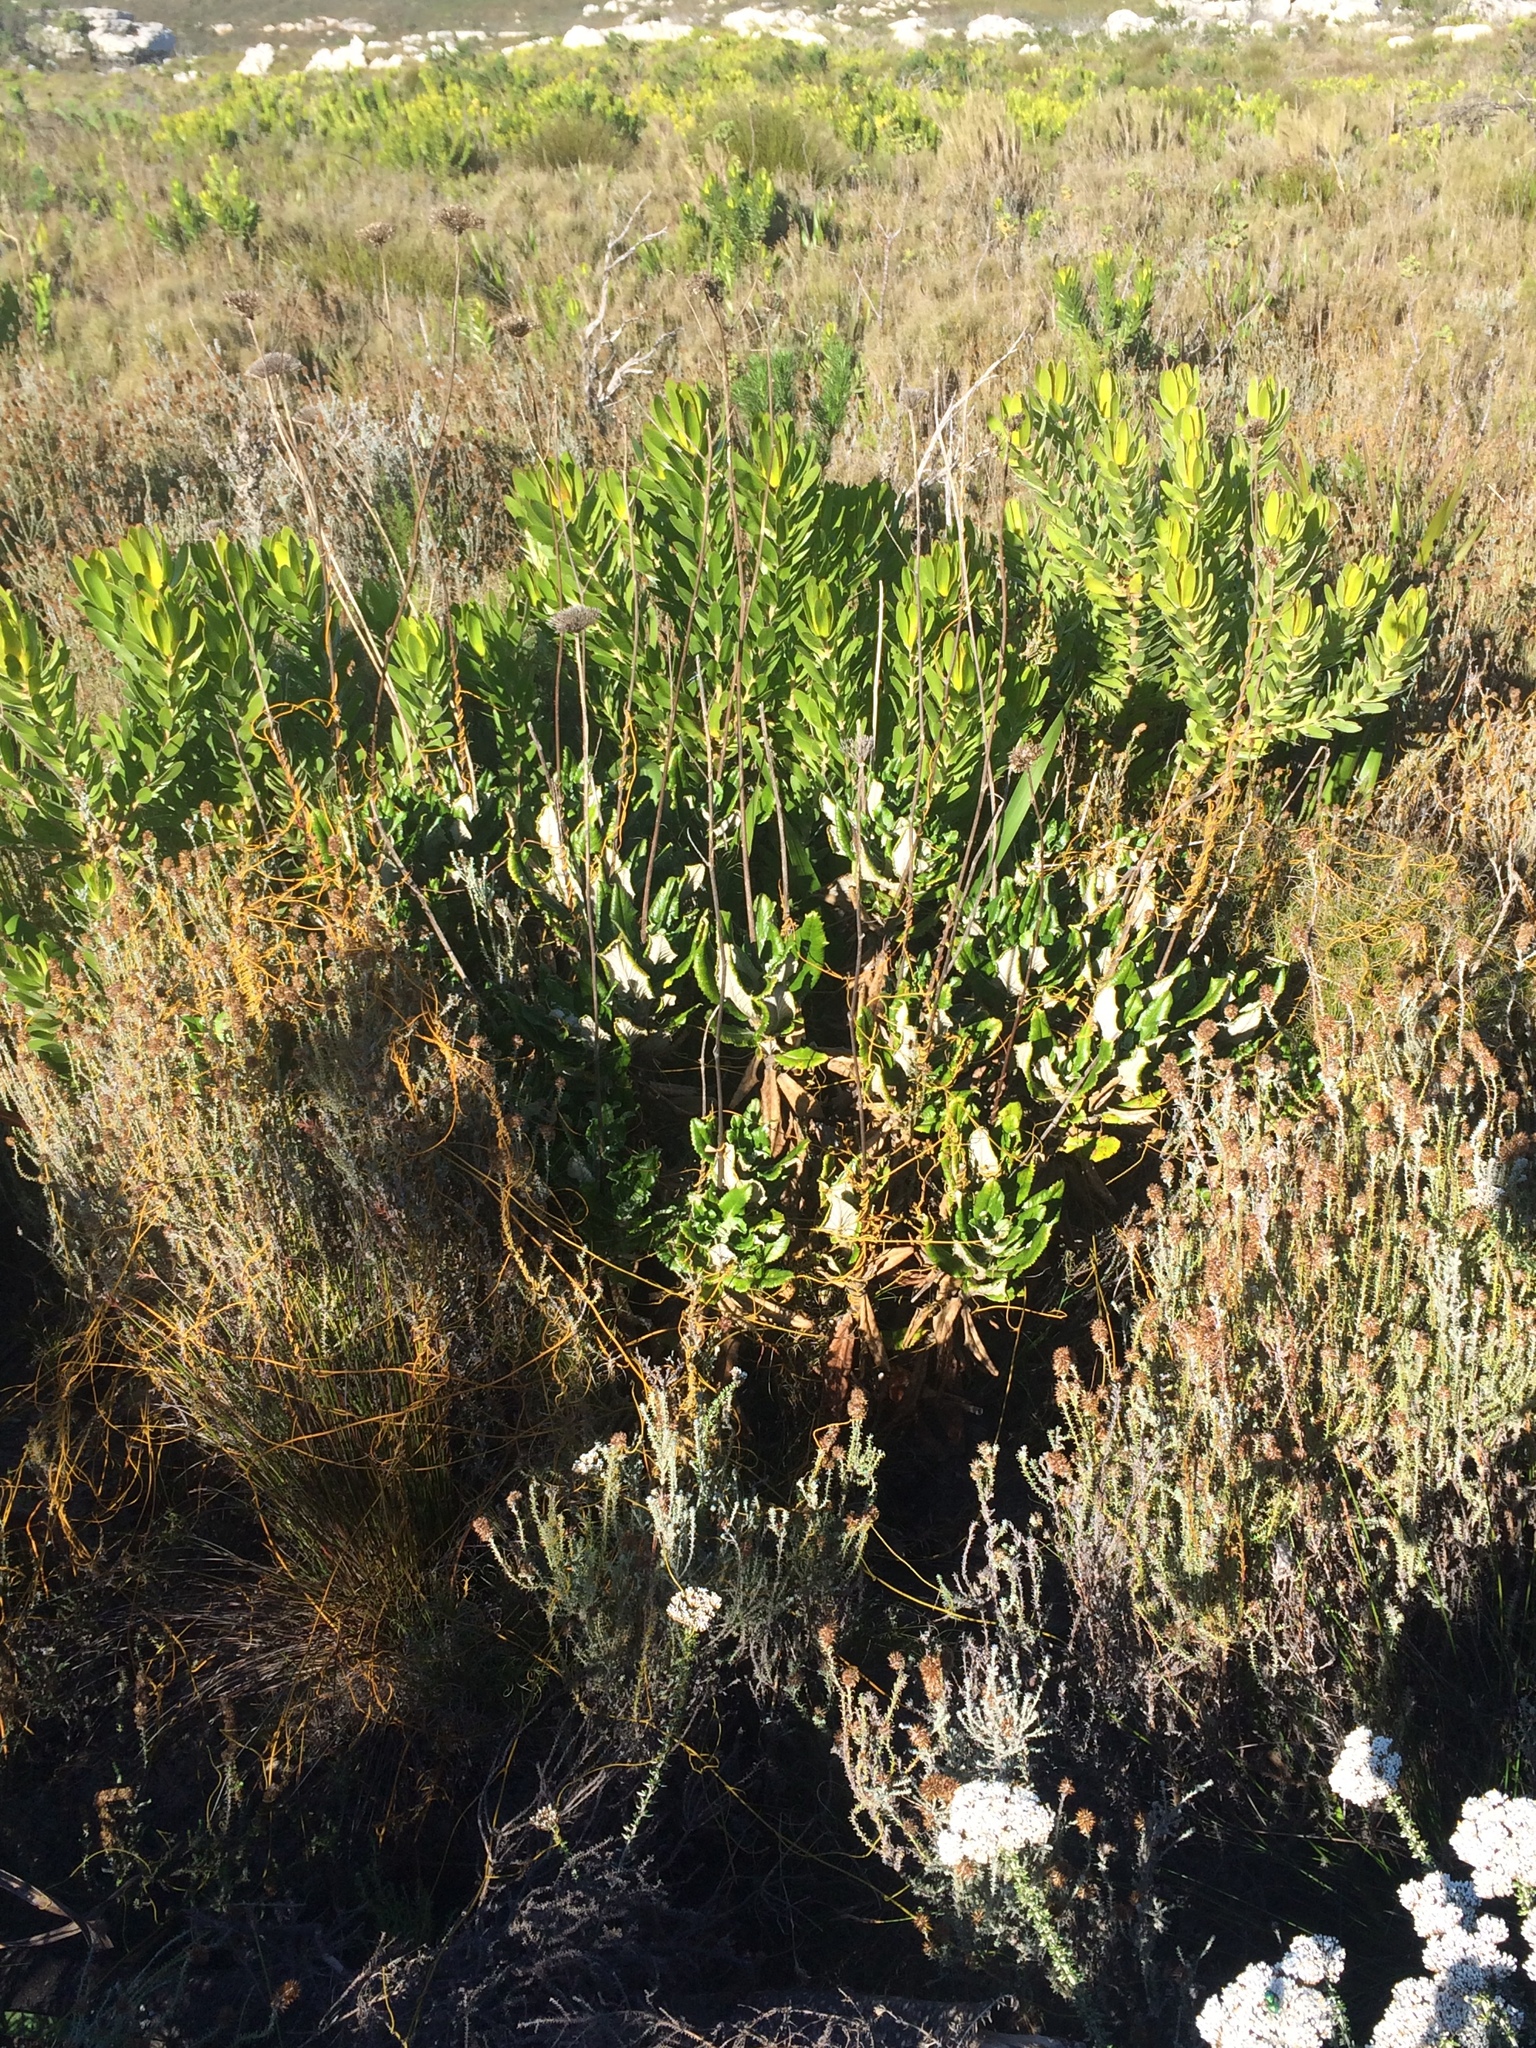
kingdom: Plantae
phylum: Tracheophyta
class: Magnoliopsida
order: Apiales
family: Apiaceae
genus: Hermas
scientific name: Hermas villosa
